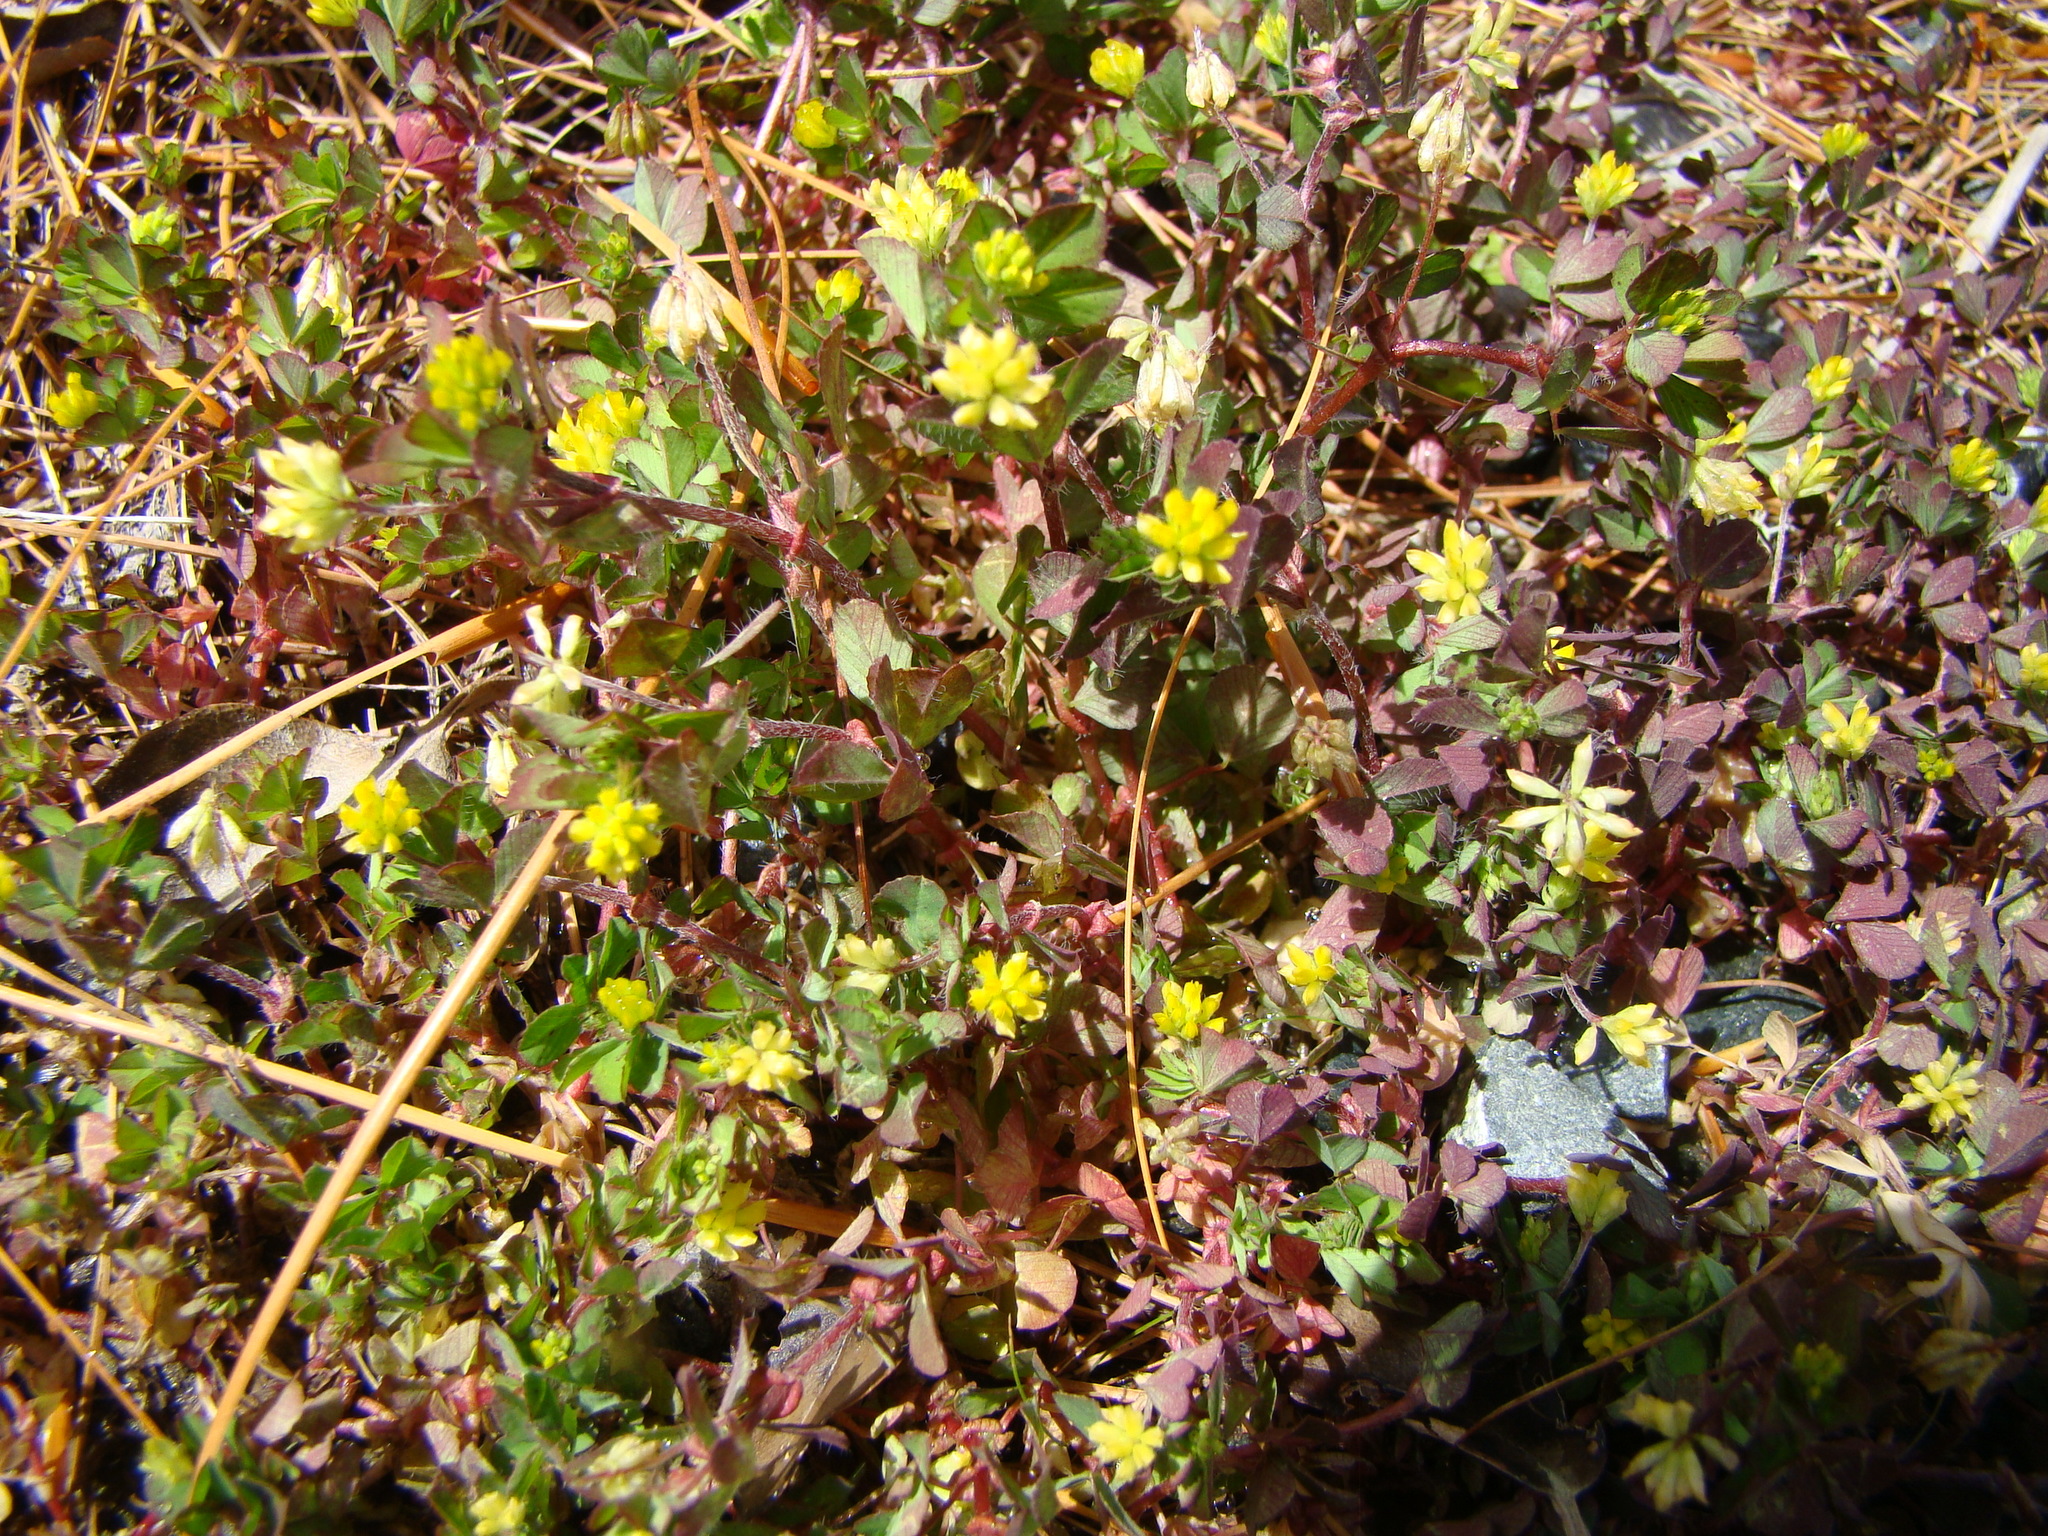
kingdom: Plantae
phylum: Tracheophyta
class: Magnoliopsida
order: Fabales
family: Fabaceae
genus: Trifolium
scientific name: Trifolium dubium
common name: Suckling clover
